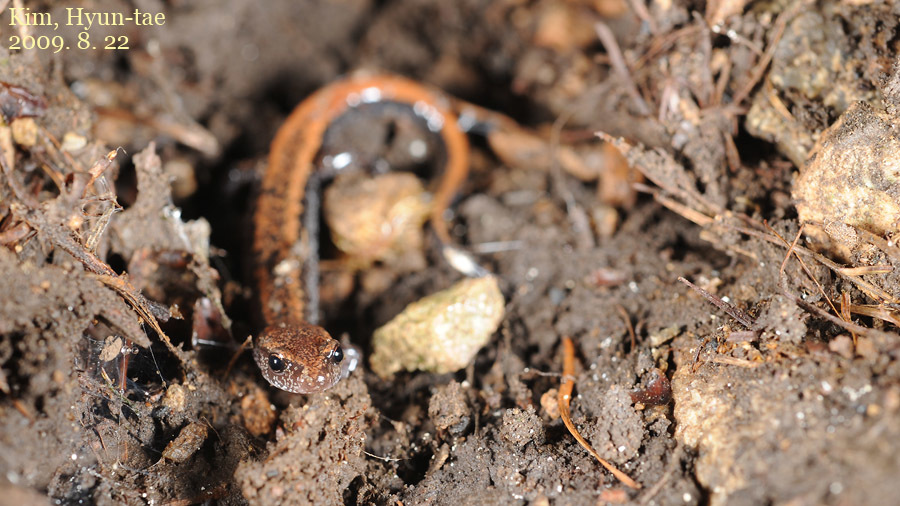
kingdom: Animalia
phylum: Chordata
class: Amphibia
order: Caudata
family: Plethodontidae
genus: Karsenia
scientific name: Karsenia koreana
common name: Korean crevice salamander
